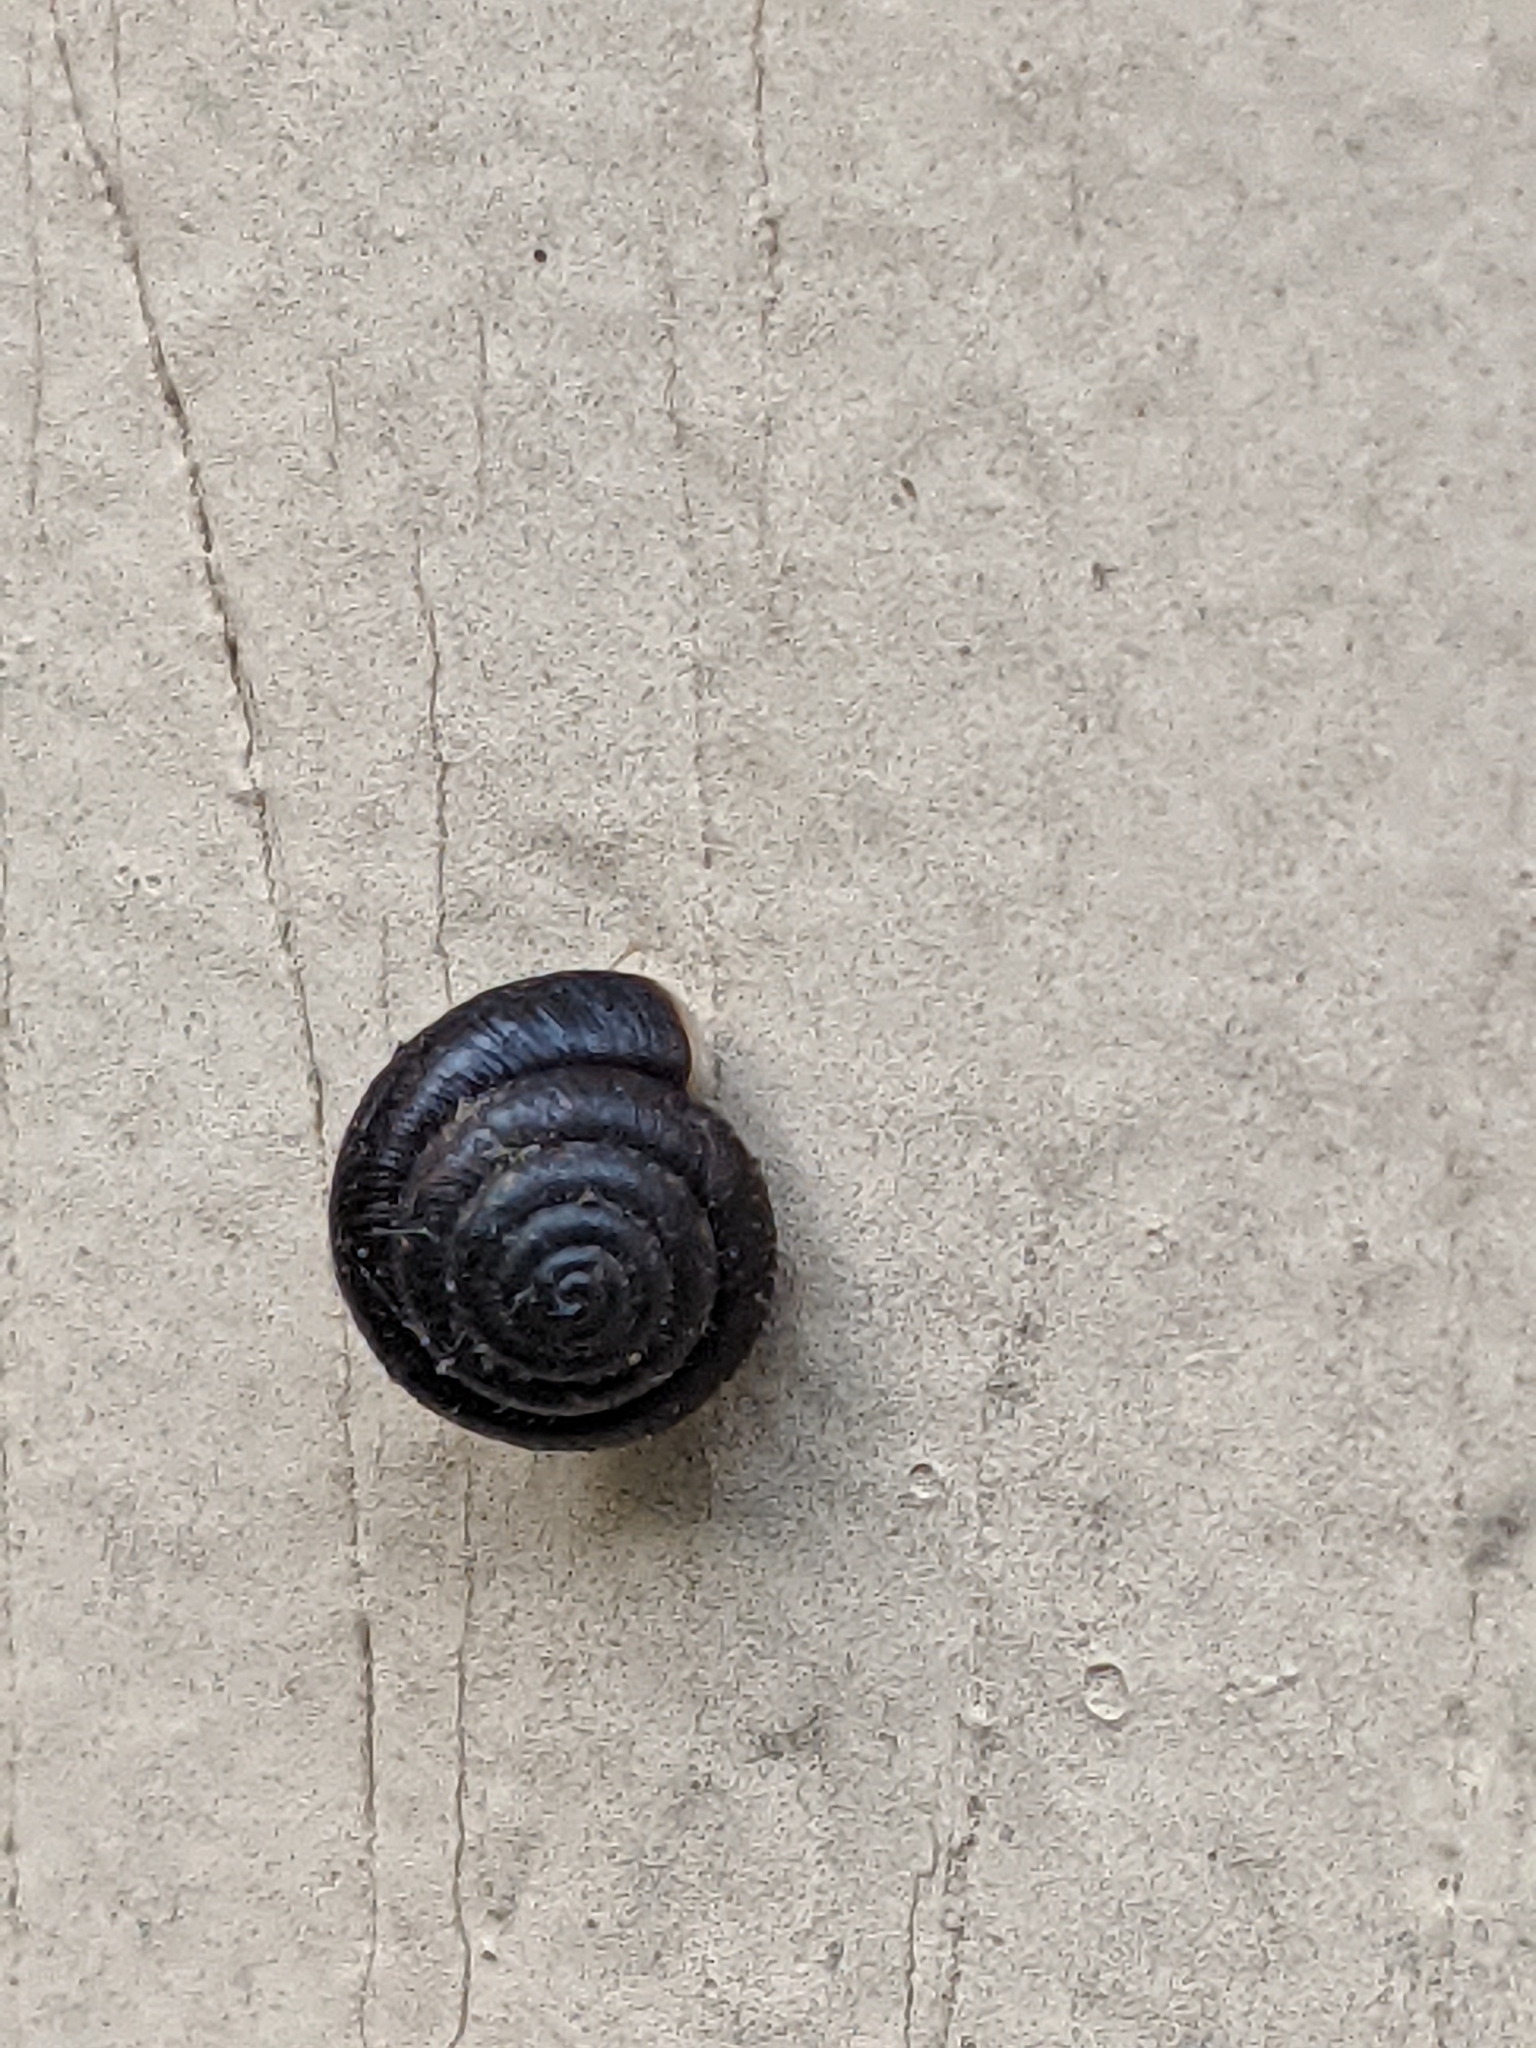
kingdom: Animalia
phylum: Mollusca
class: Gastropoda
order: Stylommatophora
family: Hygromiidae
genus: Trochulus
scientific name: Trochulus hispidus
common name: Hairy snail
